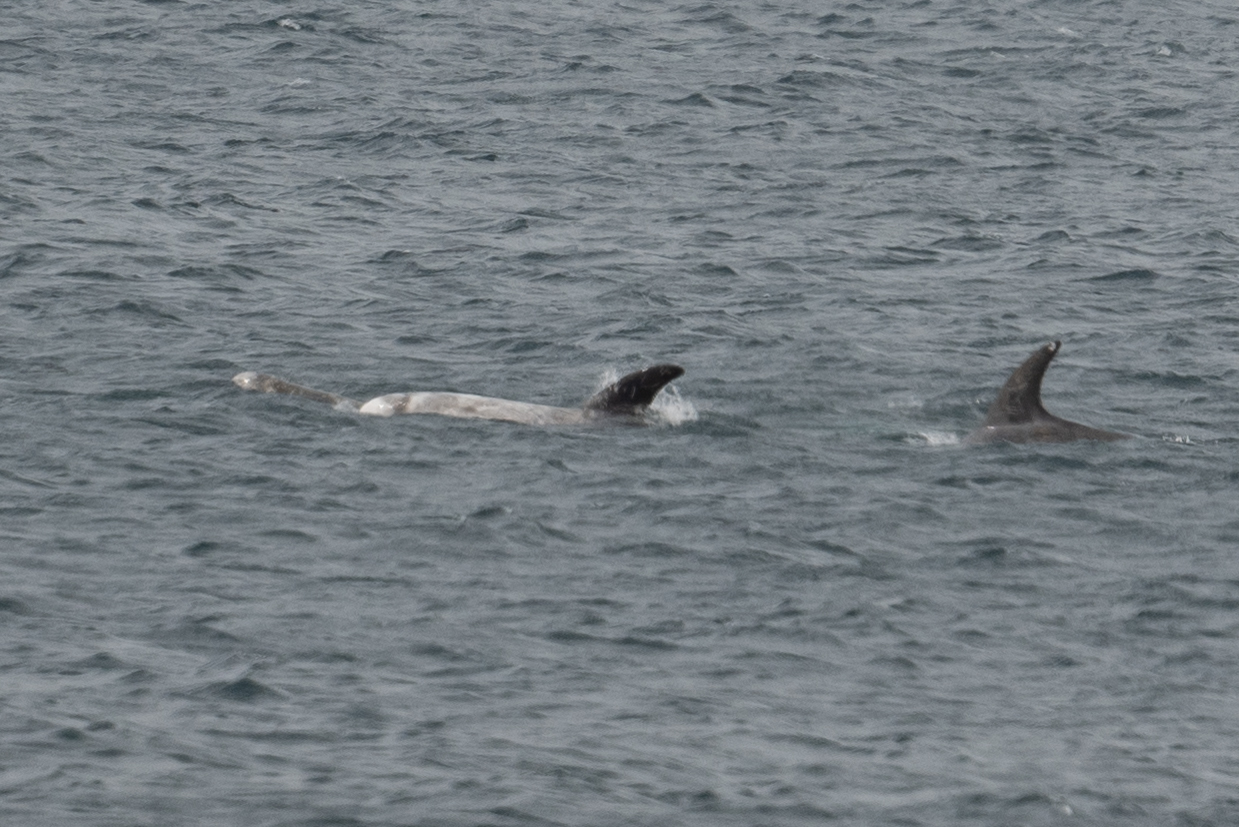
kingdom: Animalia
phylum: Chordata
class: Mammalia
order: Cetacea
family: Delphinidae
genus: Grampus
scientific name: Grampus griseus
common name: Risso's dolphin
